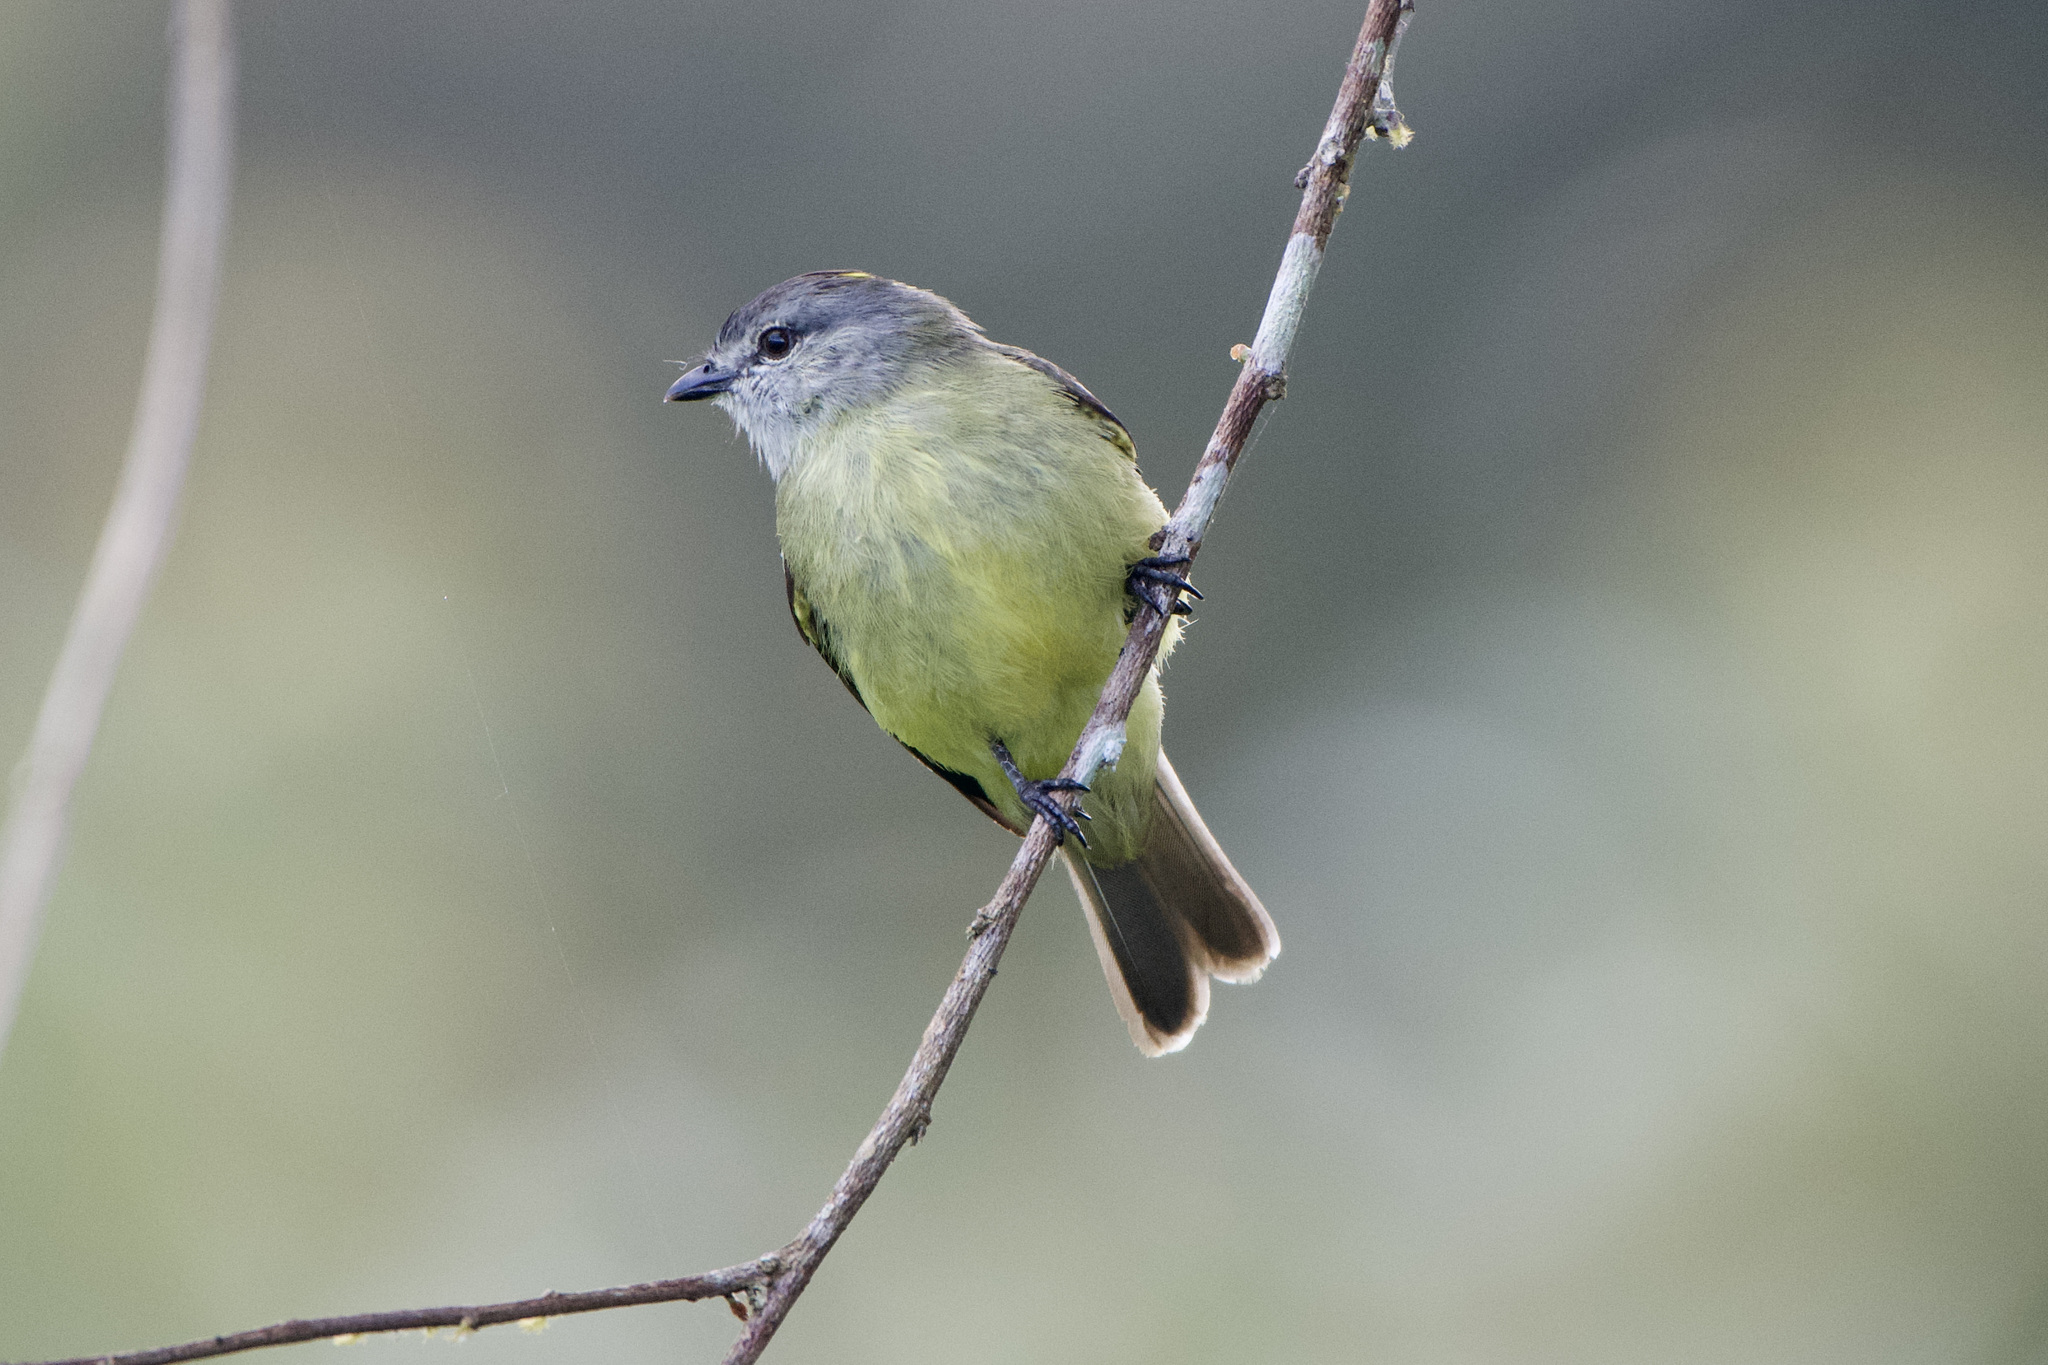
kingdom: Animalia
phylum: Chordata
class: Aves
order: Passeriformes
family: Tyrannidae
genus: Tyrannulus
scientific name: Tyrannulus elatus
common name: Yellow-crowned tyrannulet
